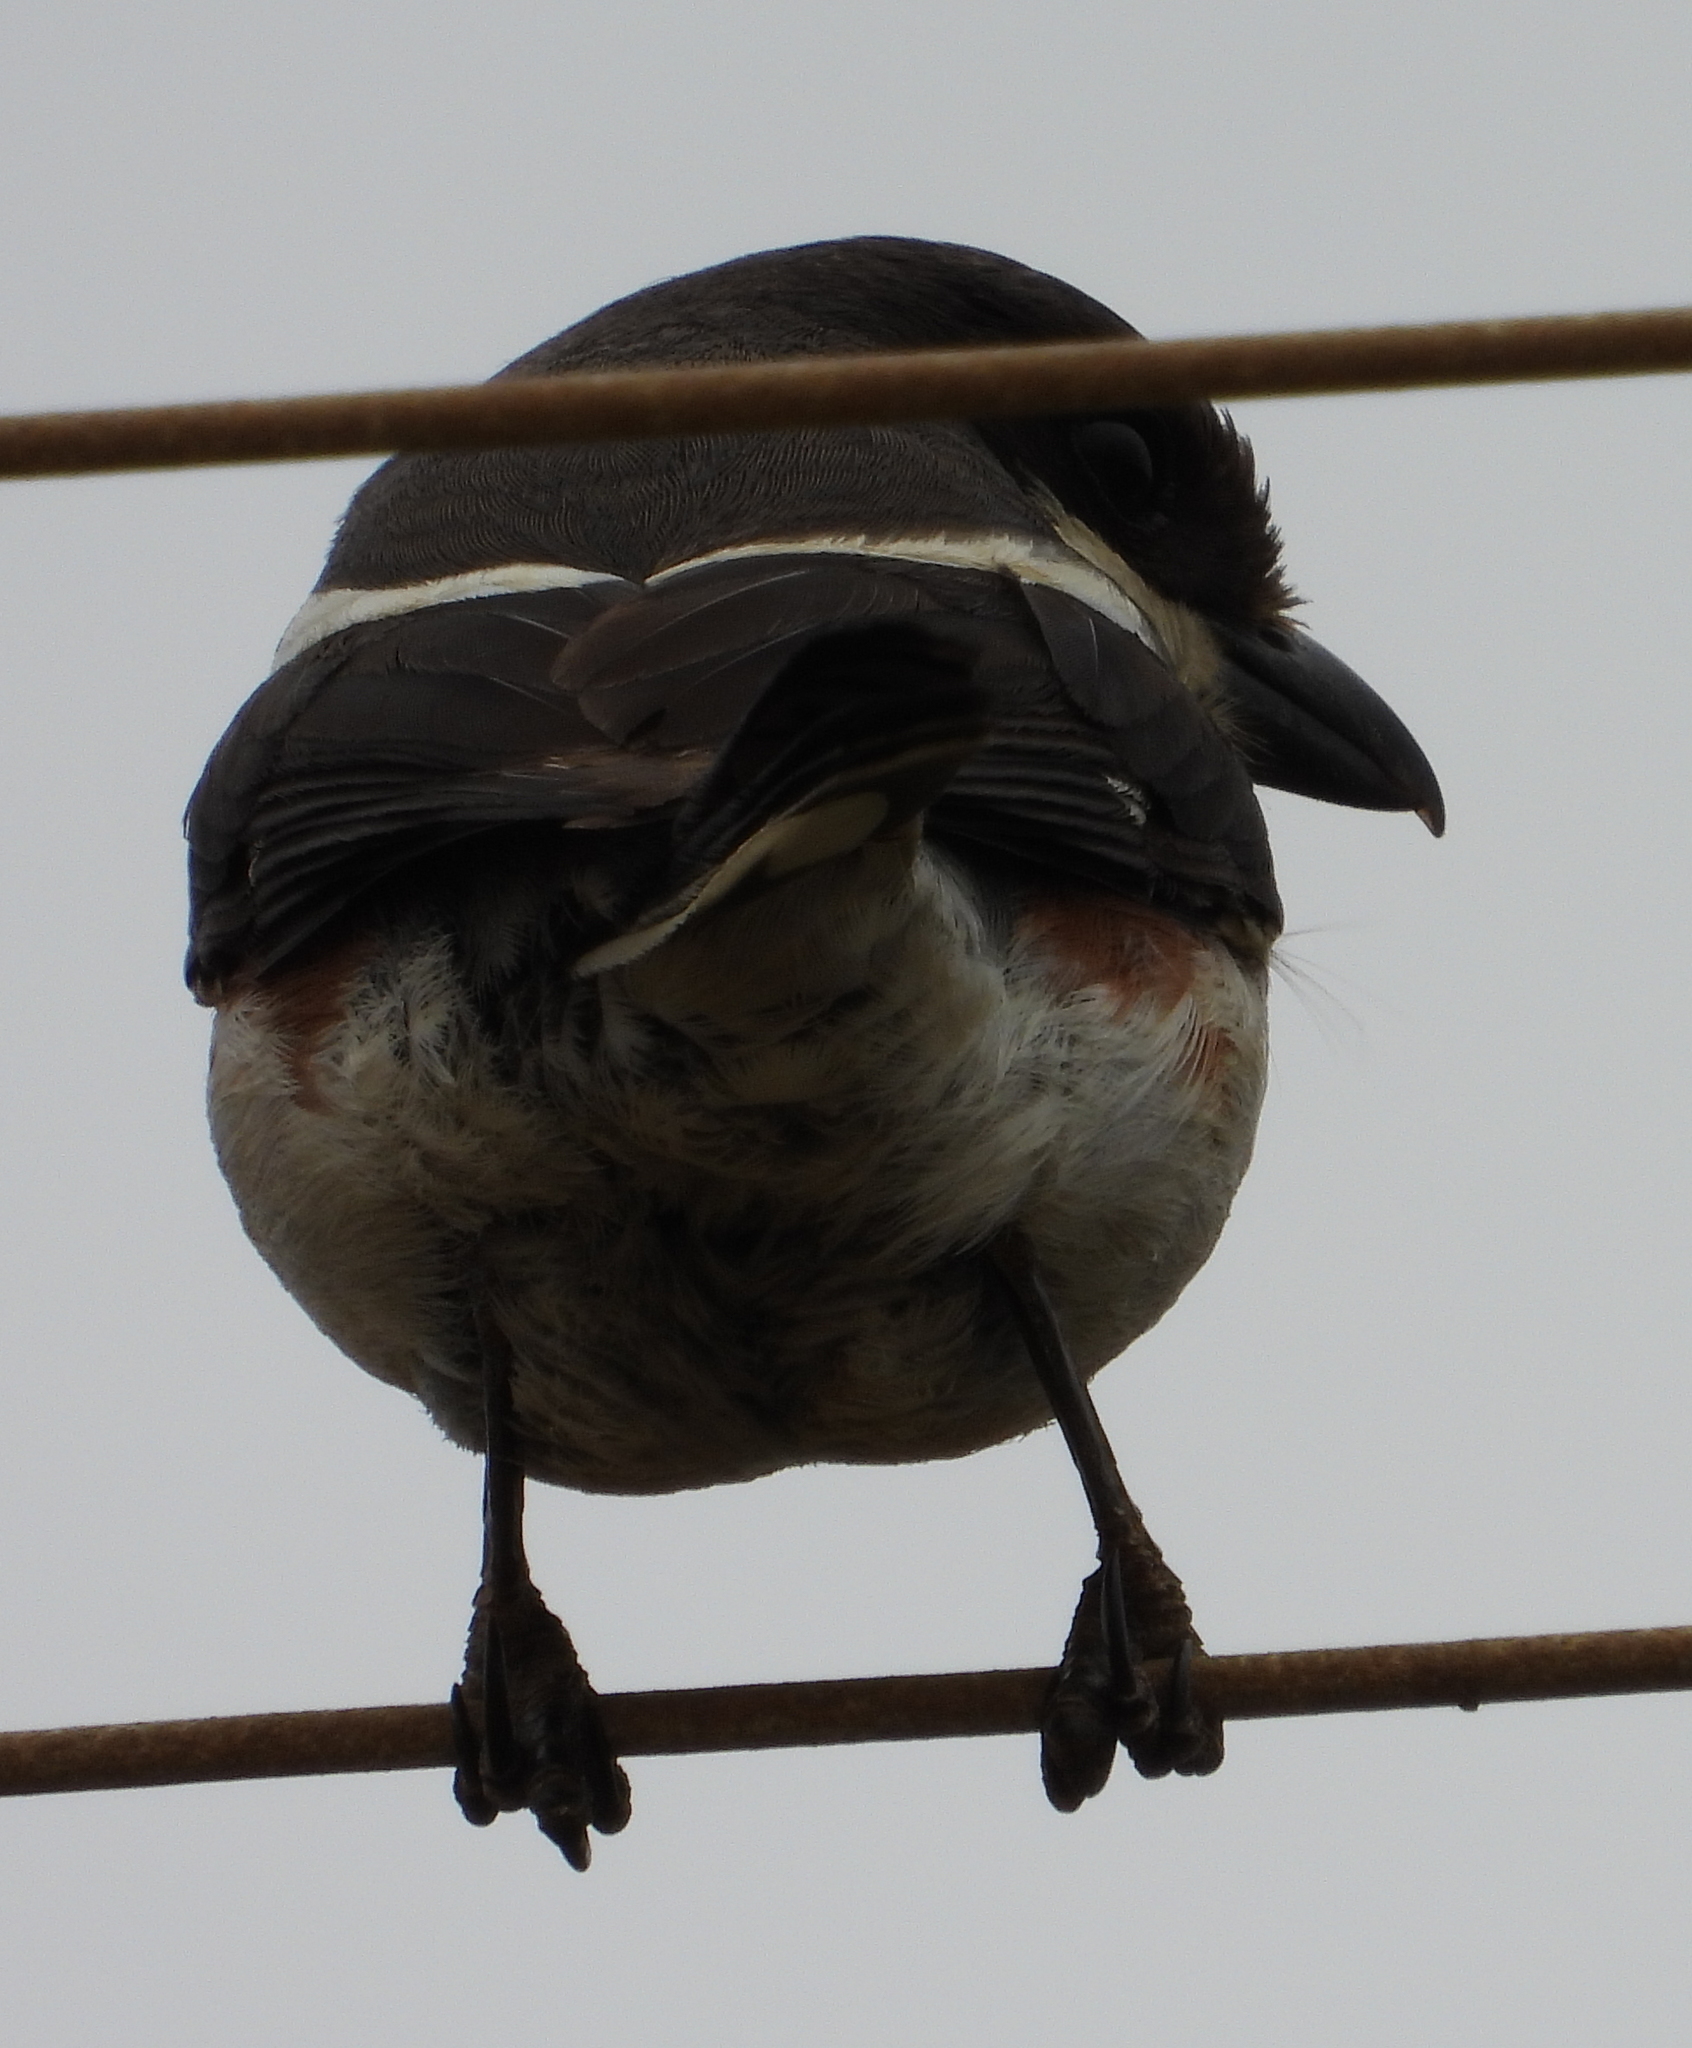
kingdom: Animalia
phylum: Chordata
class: Aves
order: Passeriformes
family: Laniidae
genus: Lanius
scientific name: Lanius collaris
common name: Southern fiscal
